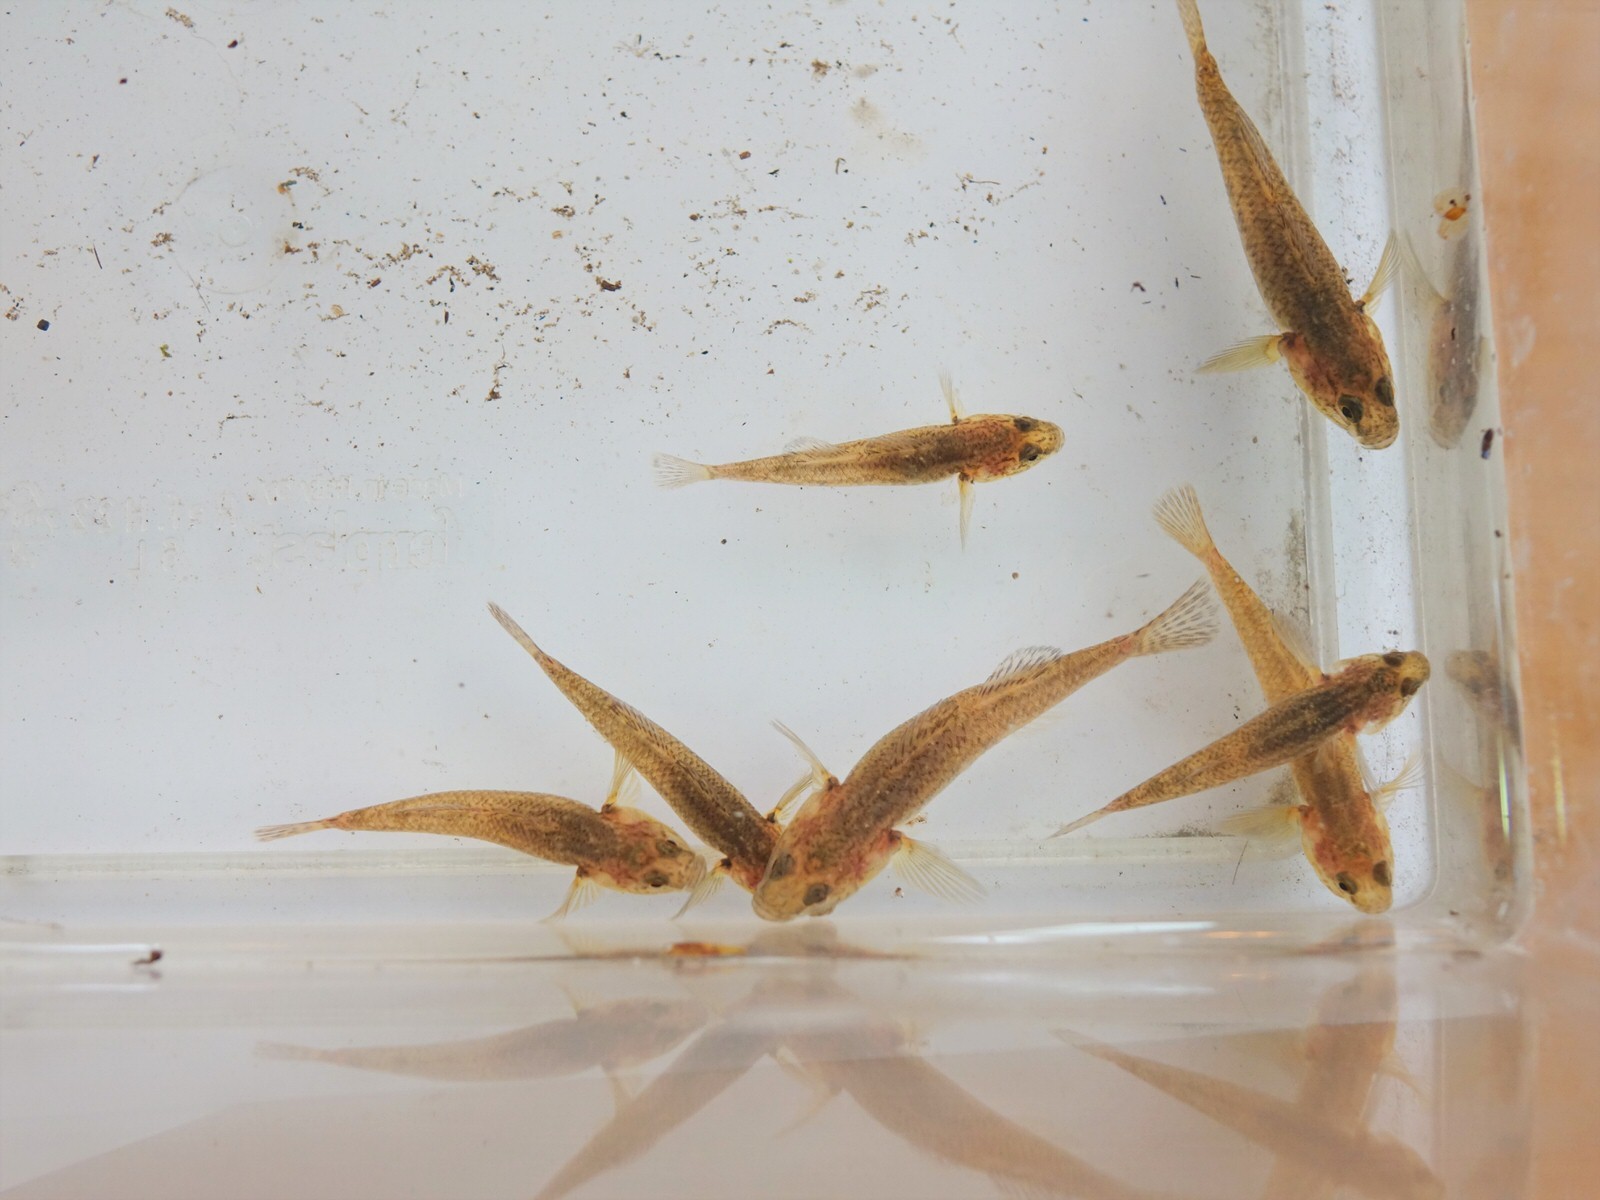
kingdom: Animalia
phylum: Chordata
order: Perciformes
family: Eleotridae
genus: Gobiomorphus
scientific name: Gobiomorphus
